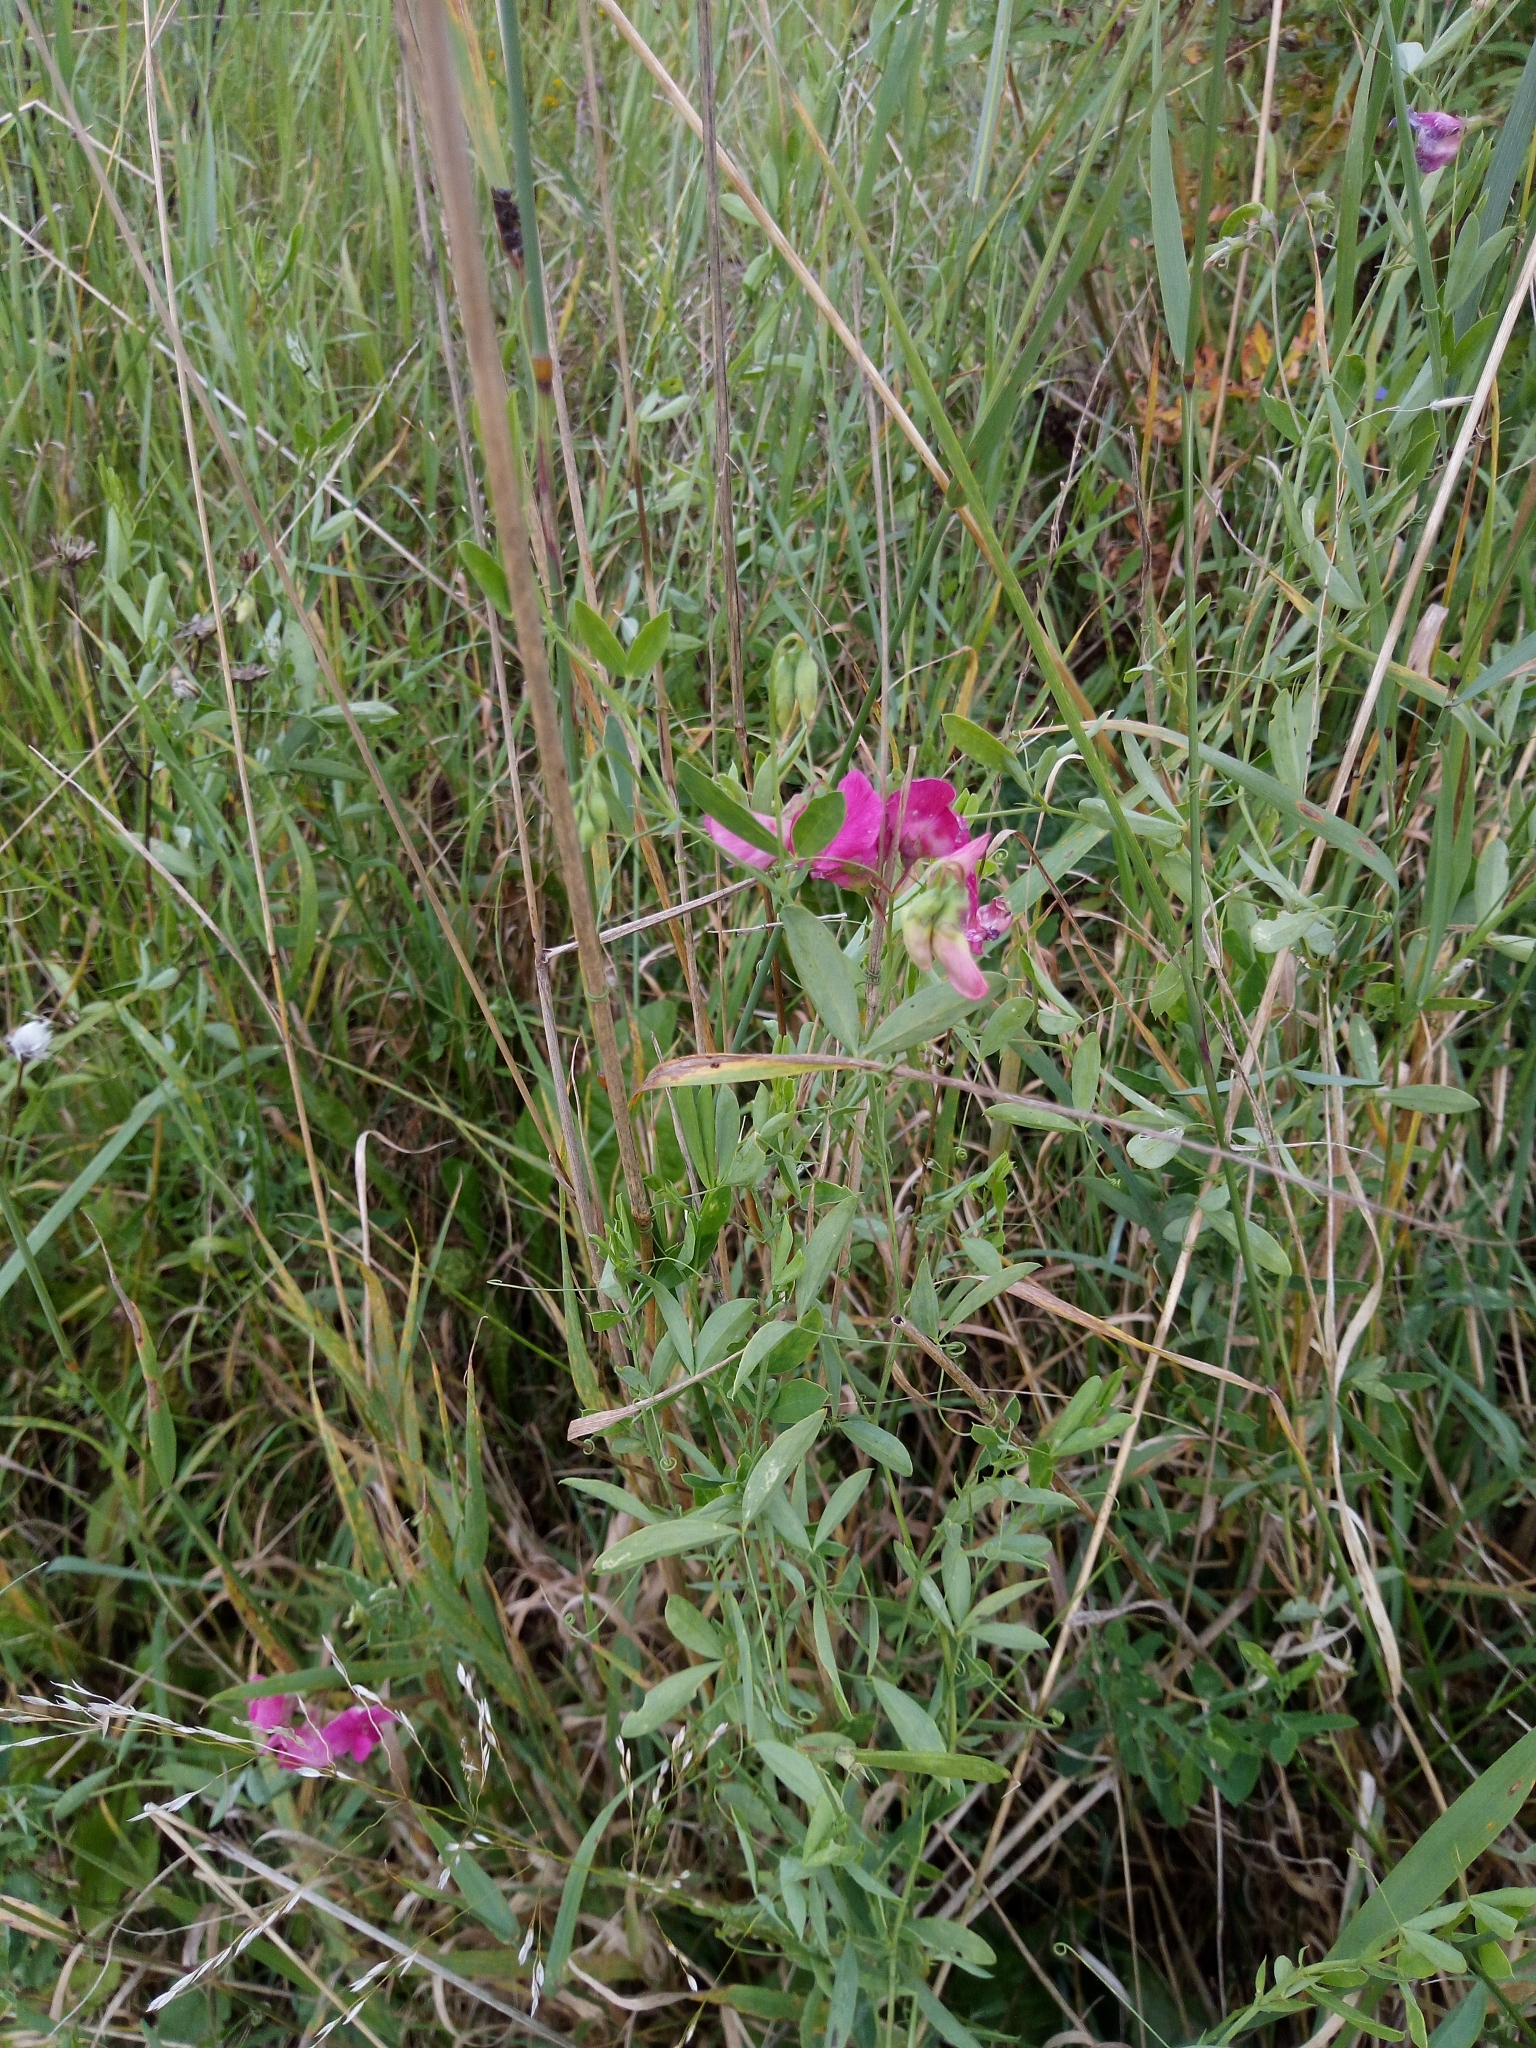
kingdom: Plantae
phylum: Tracheophyta
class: Magnoliopsida
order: Fabales
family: Fabaceae
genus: Lathyrus
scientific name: Lathyrus tuberosus
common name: Tuberous pea
